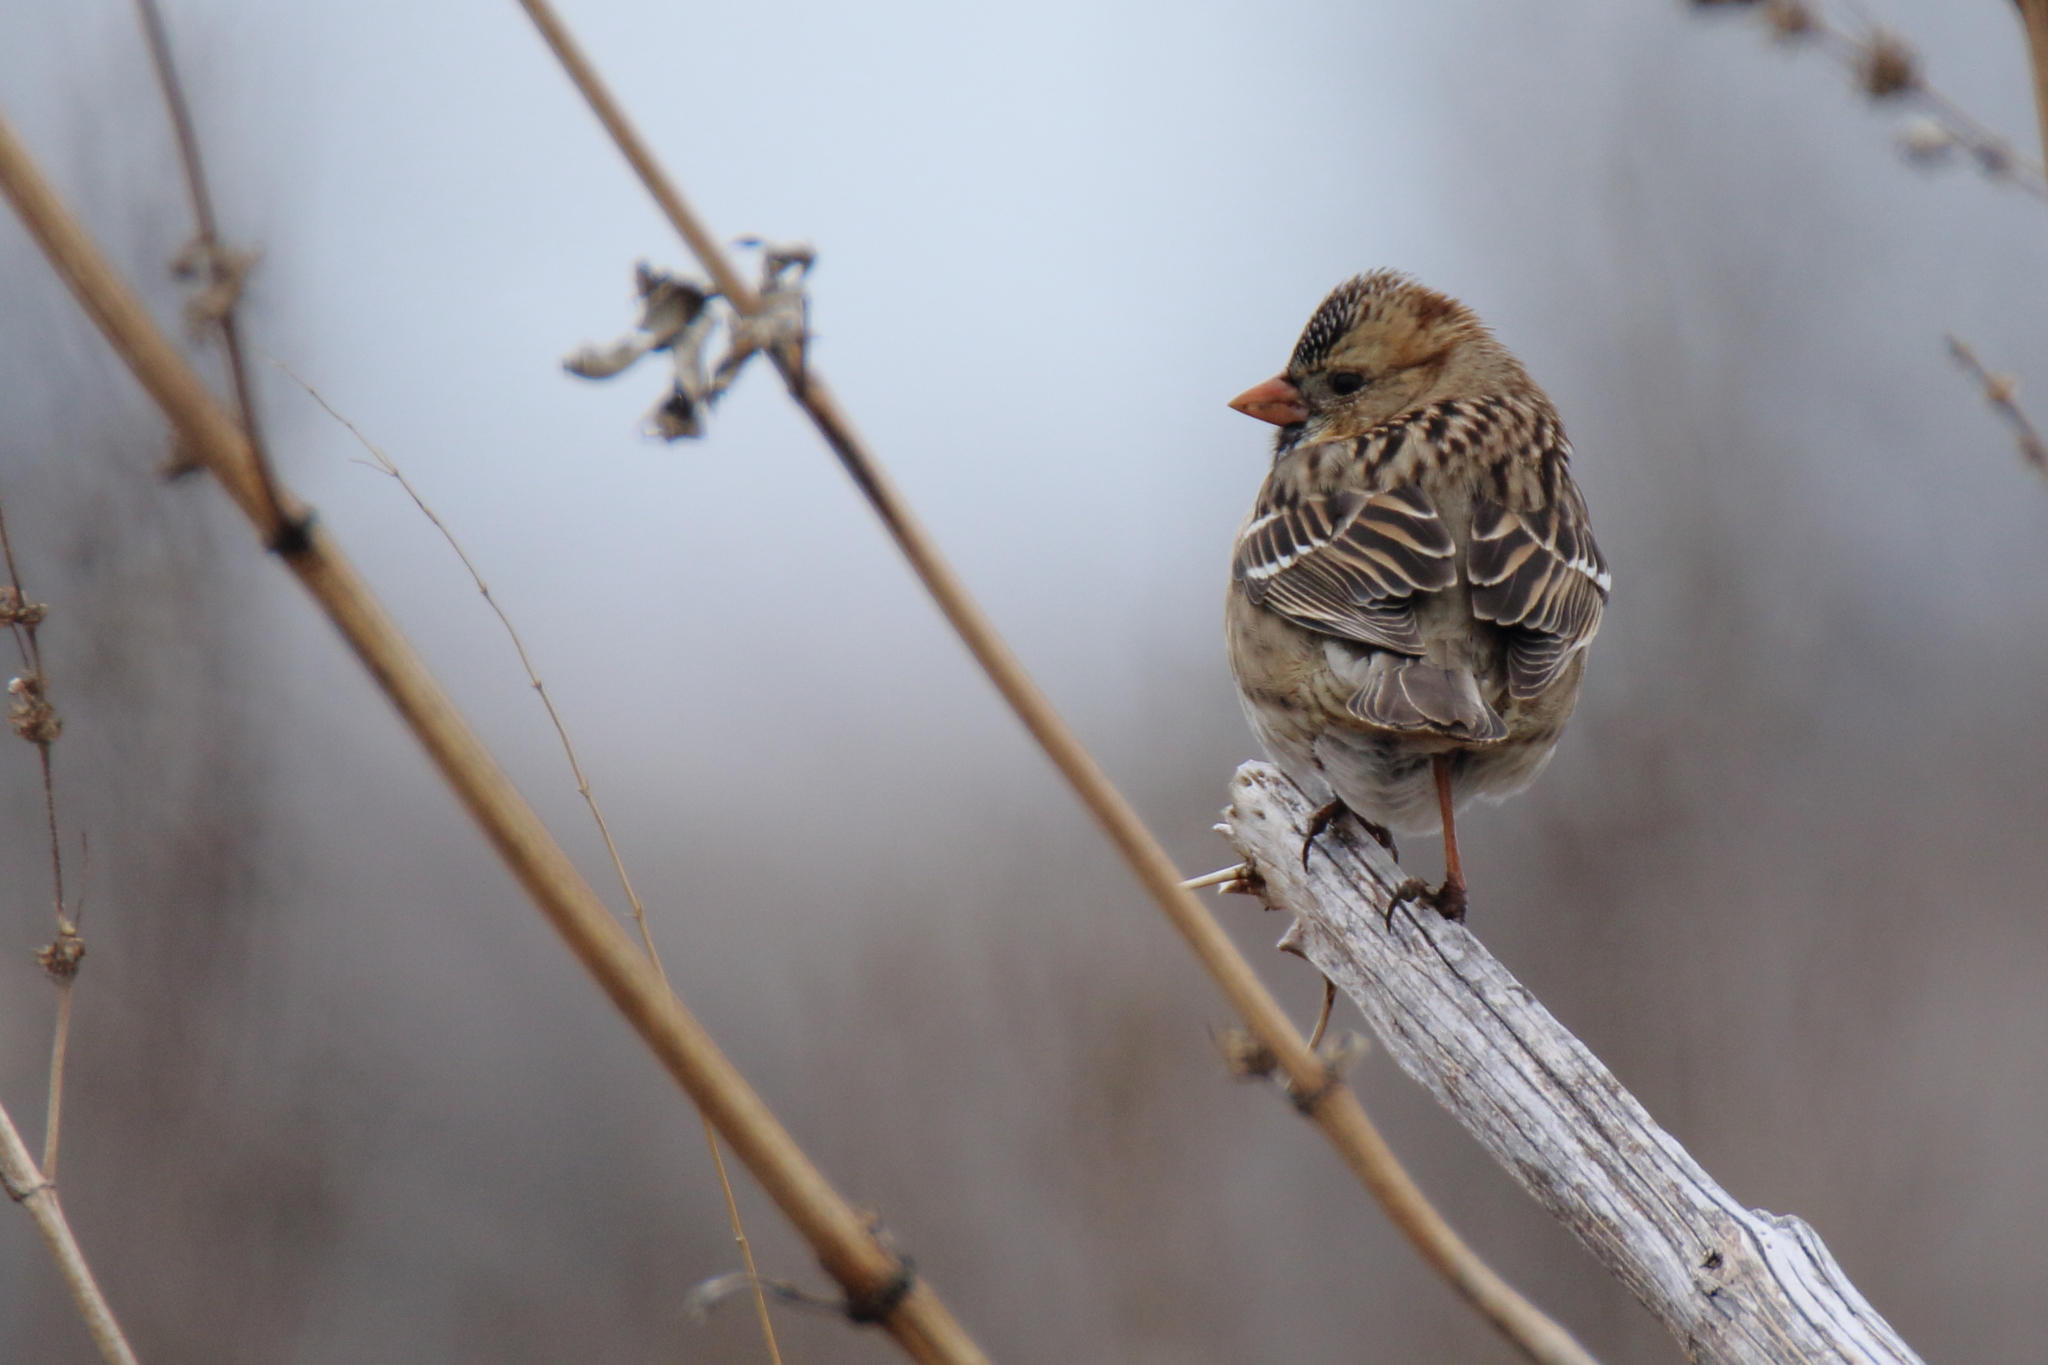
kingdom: Animalia
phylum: Chordata
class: Aves
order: Passeriformes
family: Passerellidae
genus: Zonotrichia
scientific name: Zonotrichia querula
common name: Harris's sparrow
